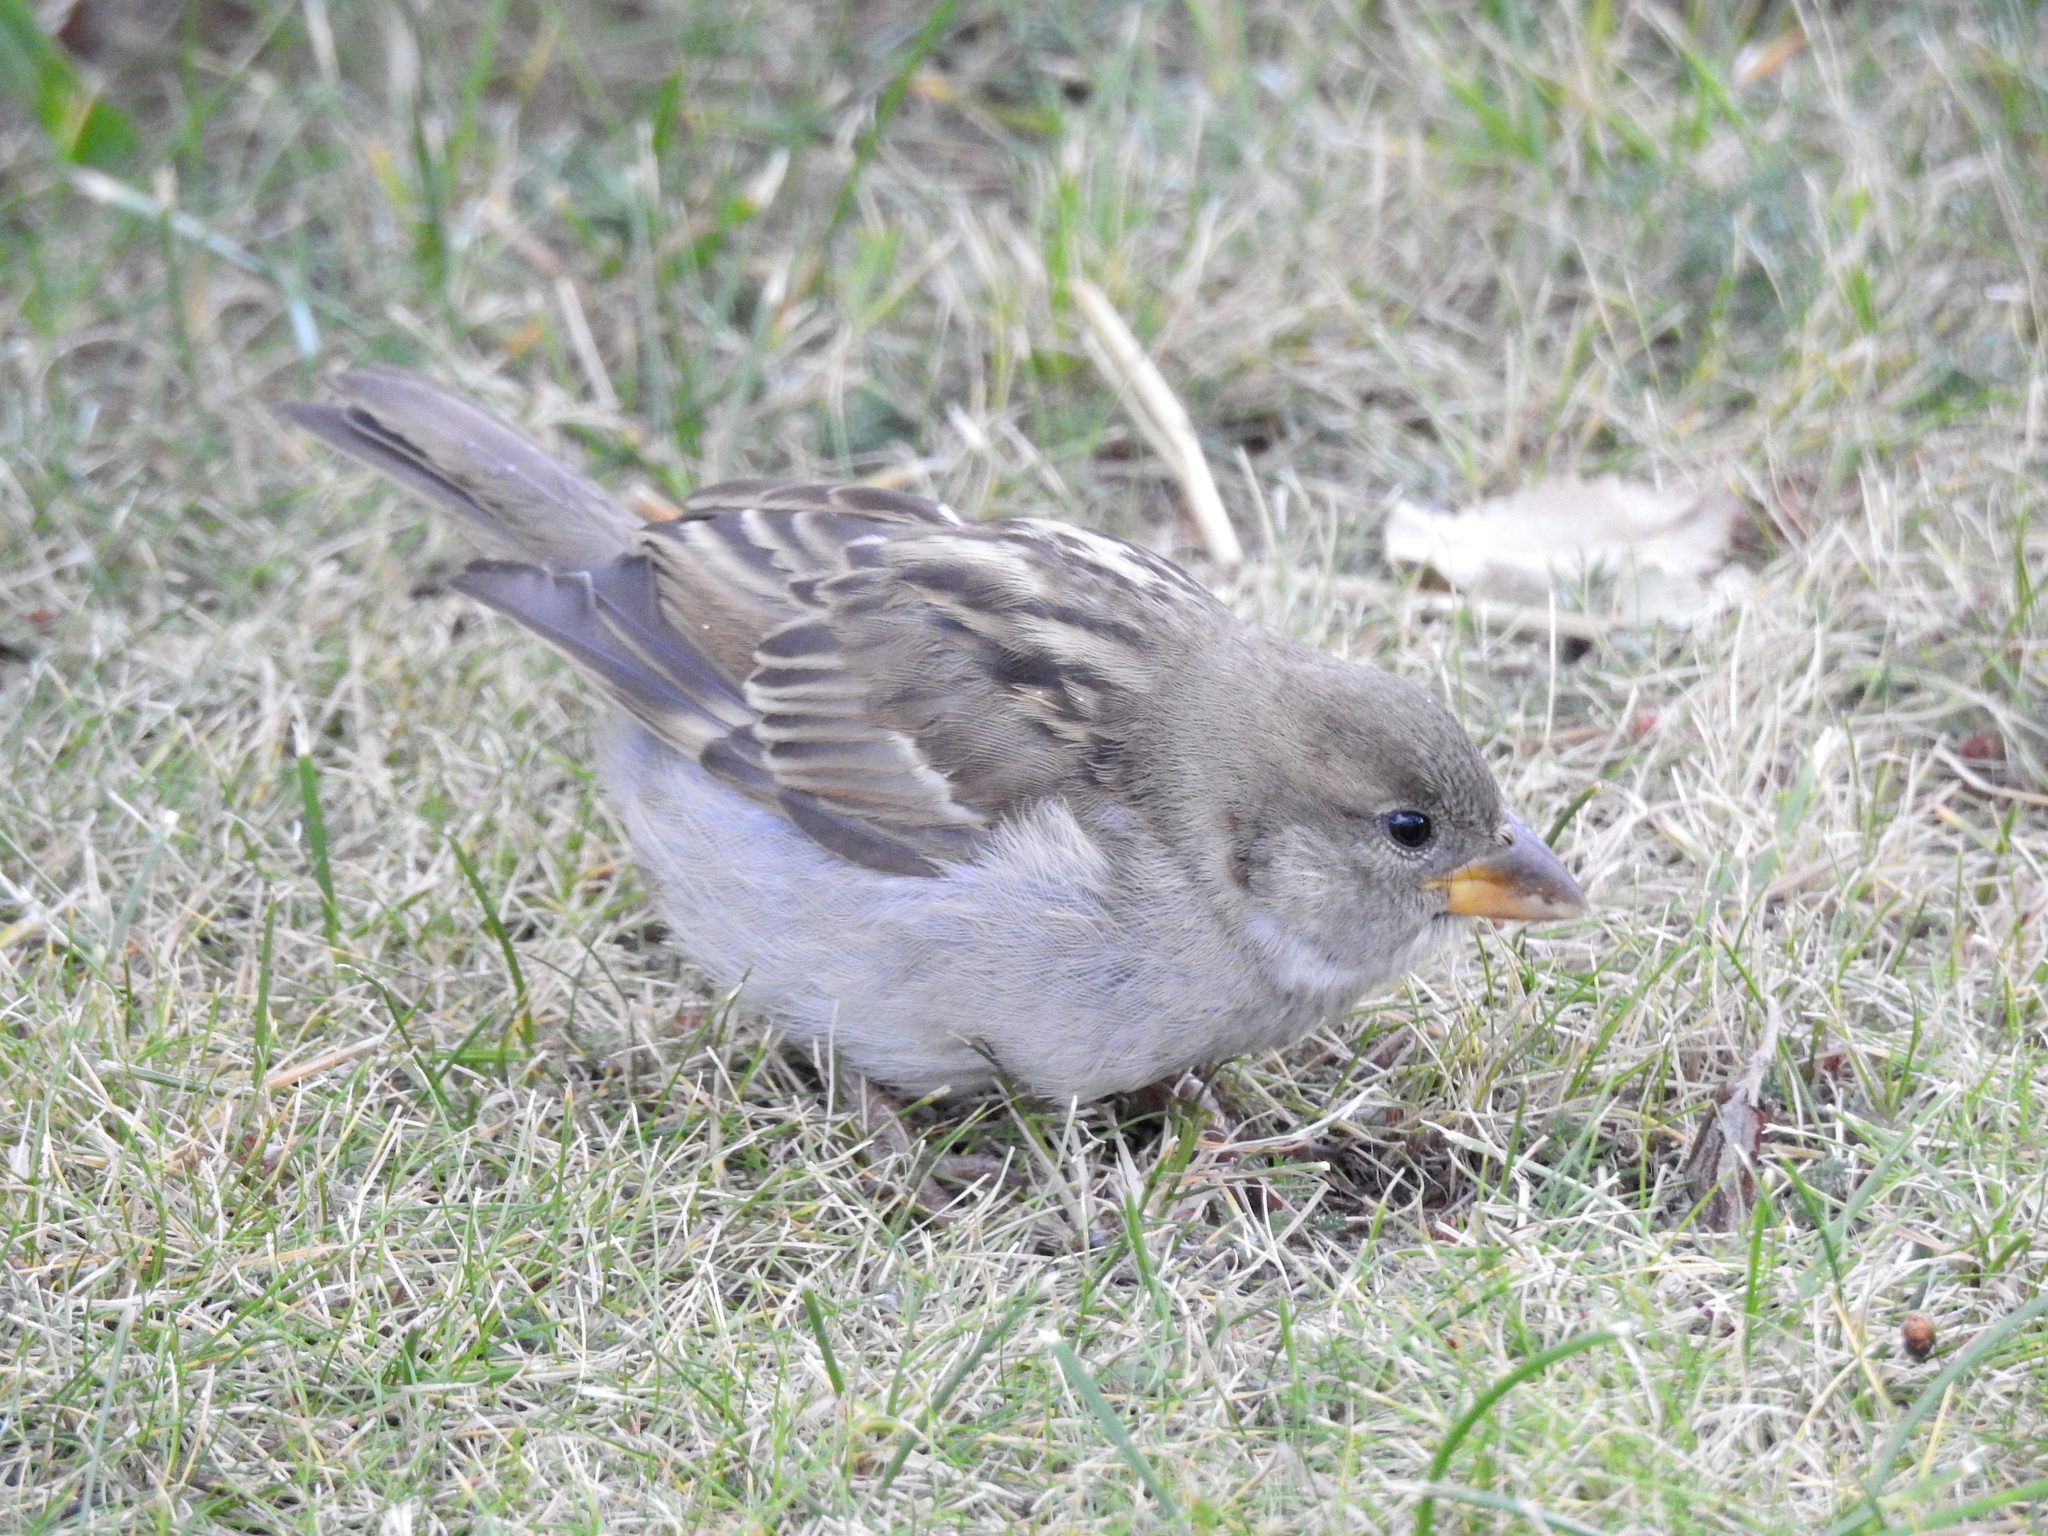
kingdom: Animalia
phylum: Chordata
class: Aves
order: Passeriformes
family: Passeridae
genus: Passer
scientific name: Passer domesticus
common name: House sparrow
